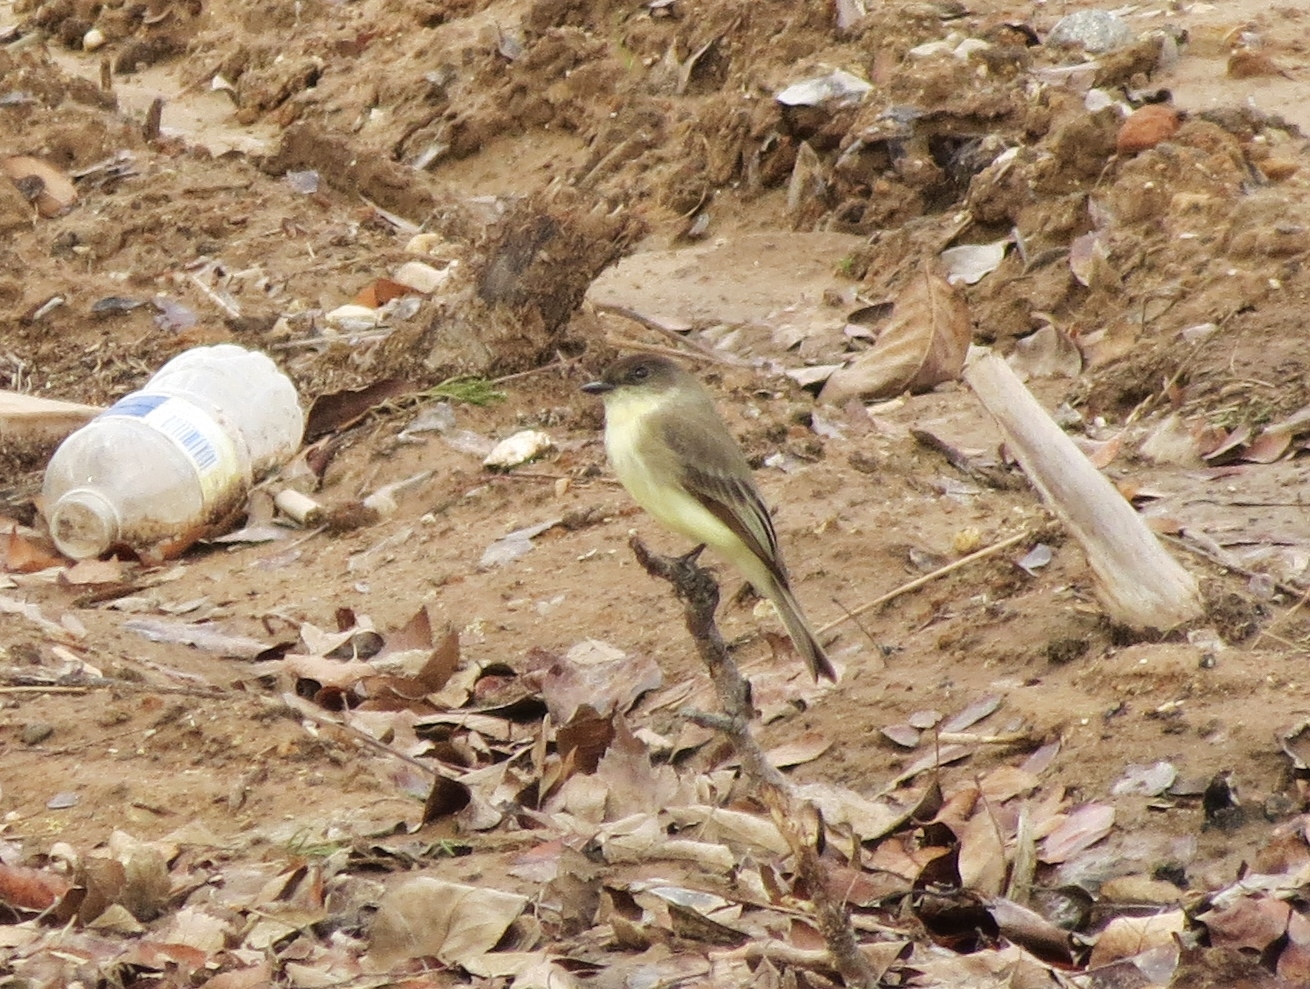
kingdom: Animalia
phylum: Chordata
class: Aves
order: Passeriformes
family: Tyrannidae
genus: Sayornis
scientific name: Sayornis phoebe
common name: Eastern phoebe
